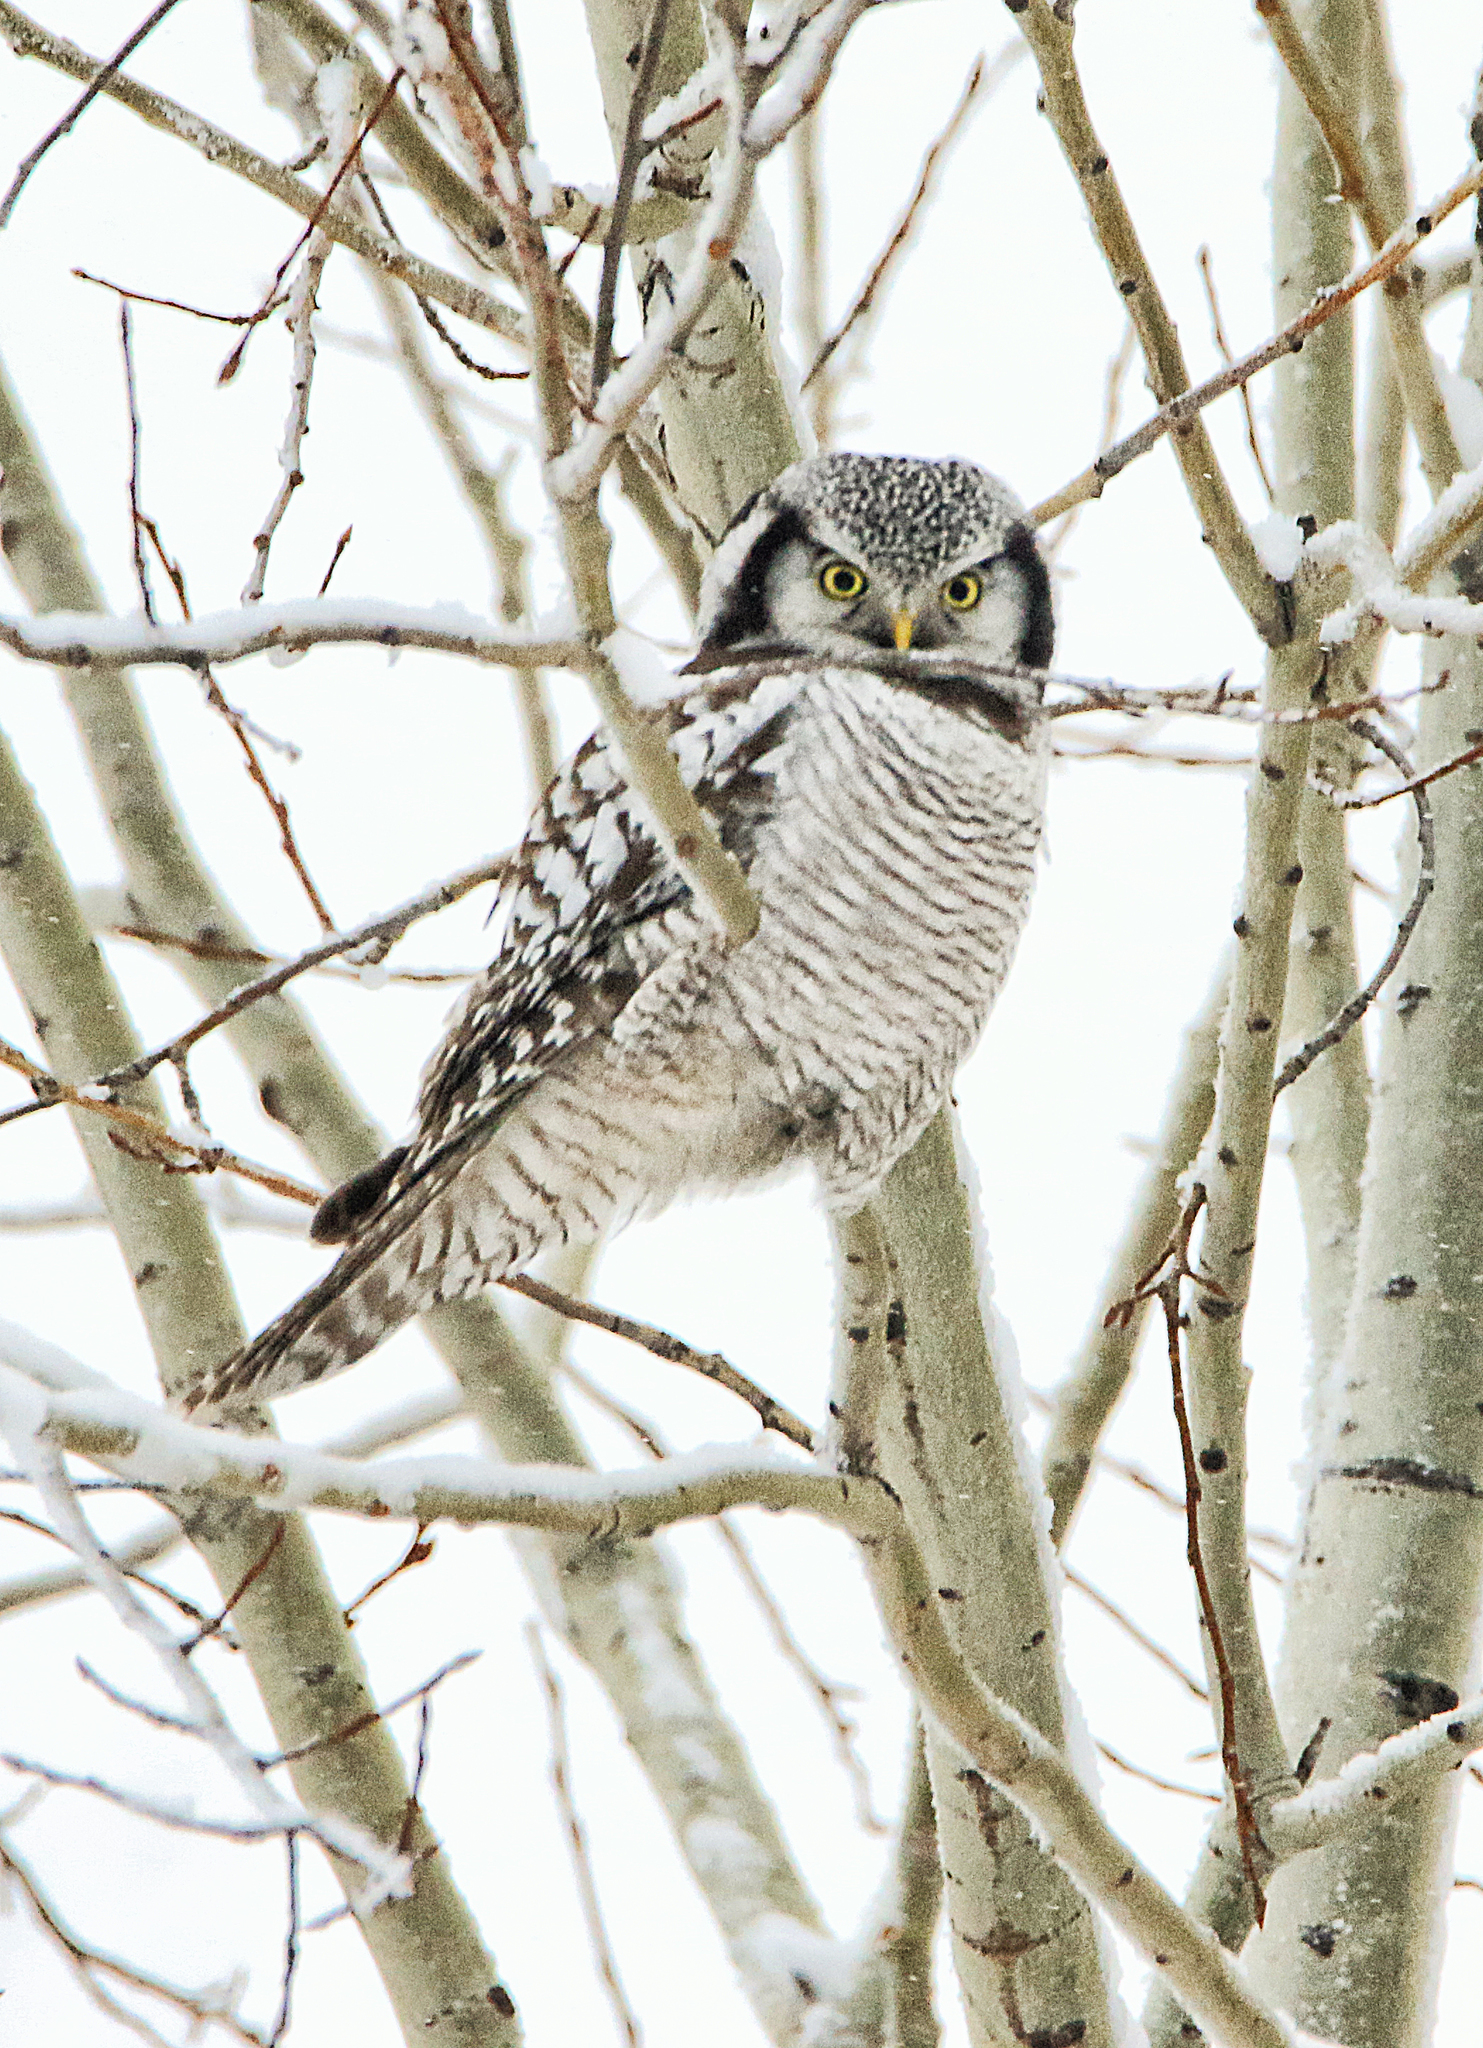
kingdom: Animalia
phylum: Chordata
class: Aves
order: Strigiformes
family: Strigidae
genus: Surnia
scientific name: Surnia ulula
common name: Northern hawk-owl
